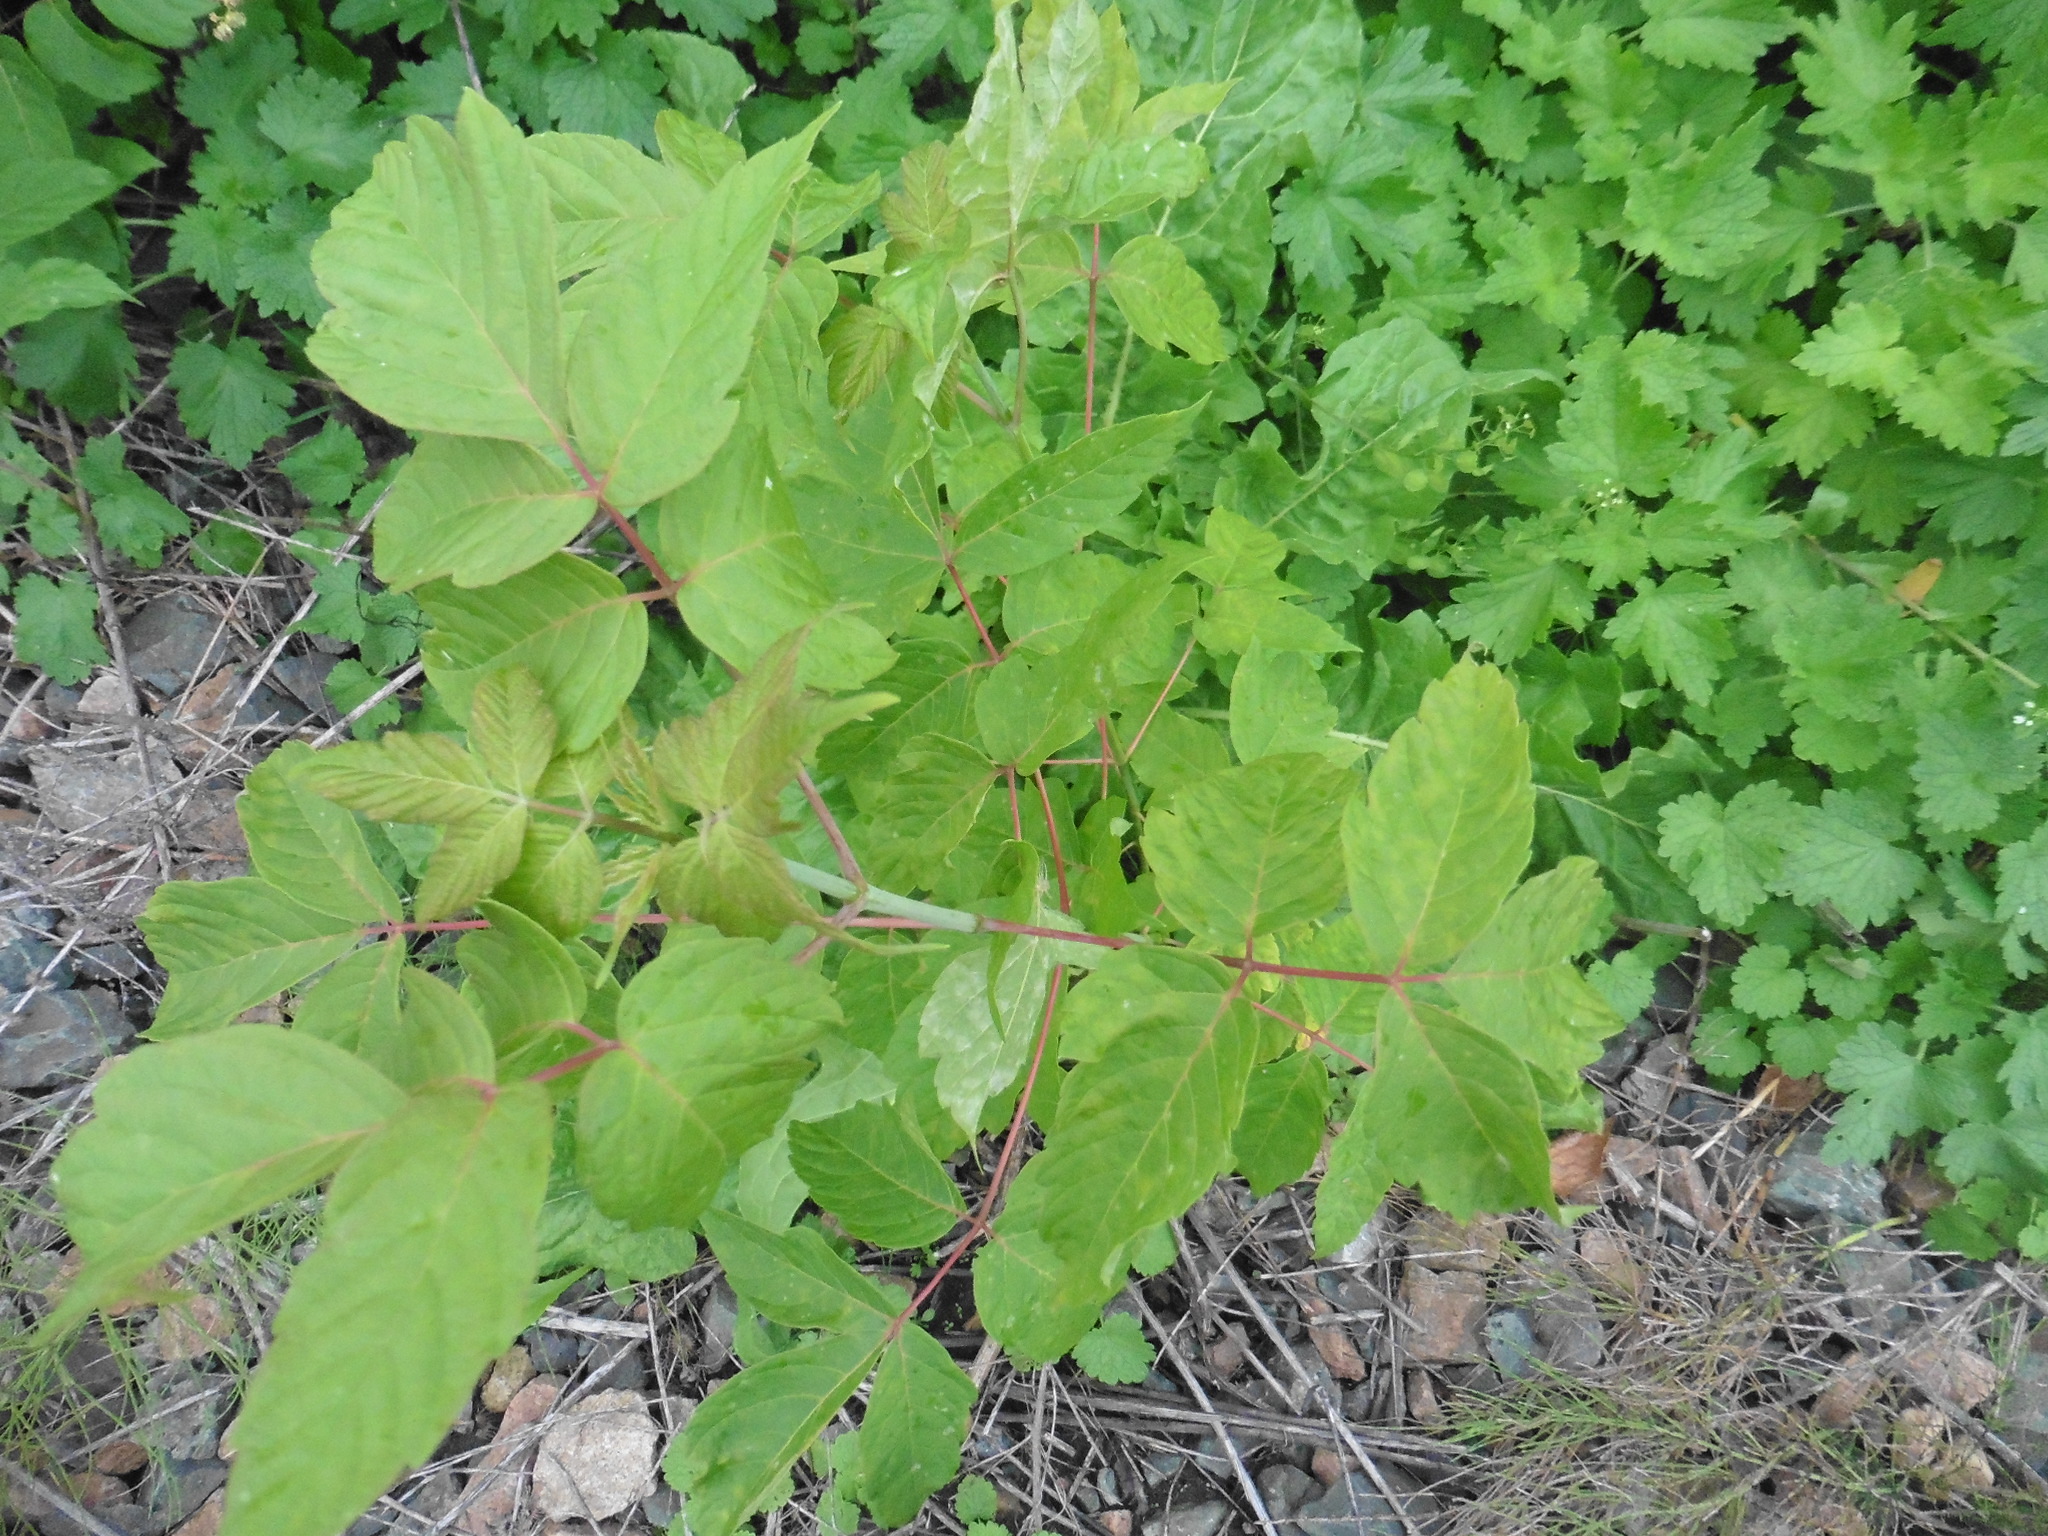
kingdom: Plantae
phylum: Tracheophyta
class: Magnoliopsida
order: Sapindales
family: Sapindaceae
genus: Acer
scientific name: Acer negundo
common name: Ashleaf maple
